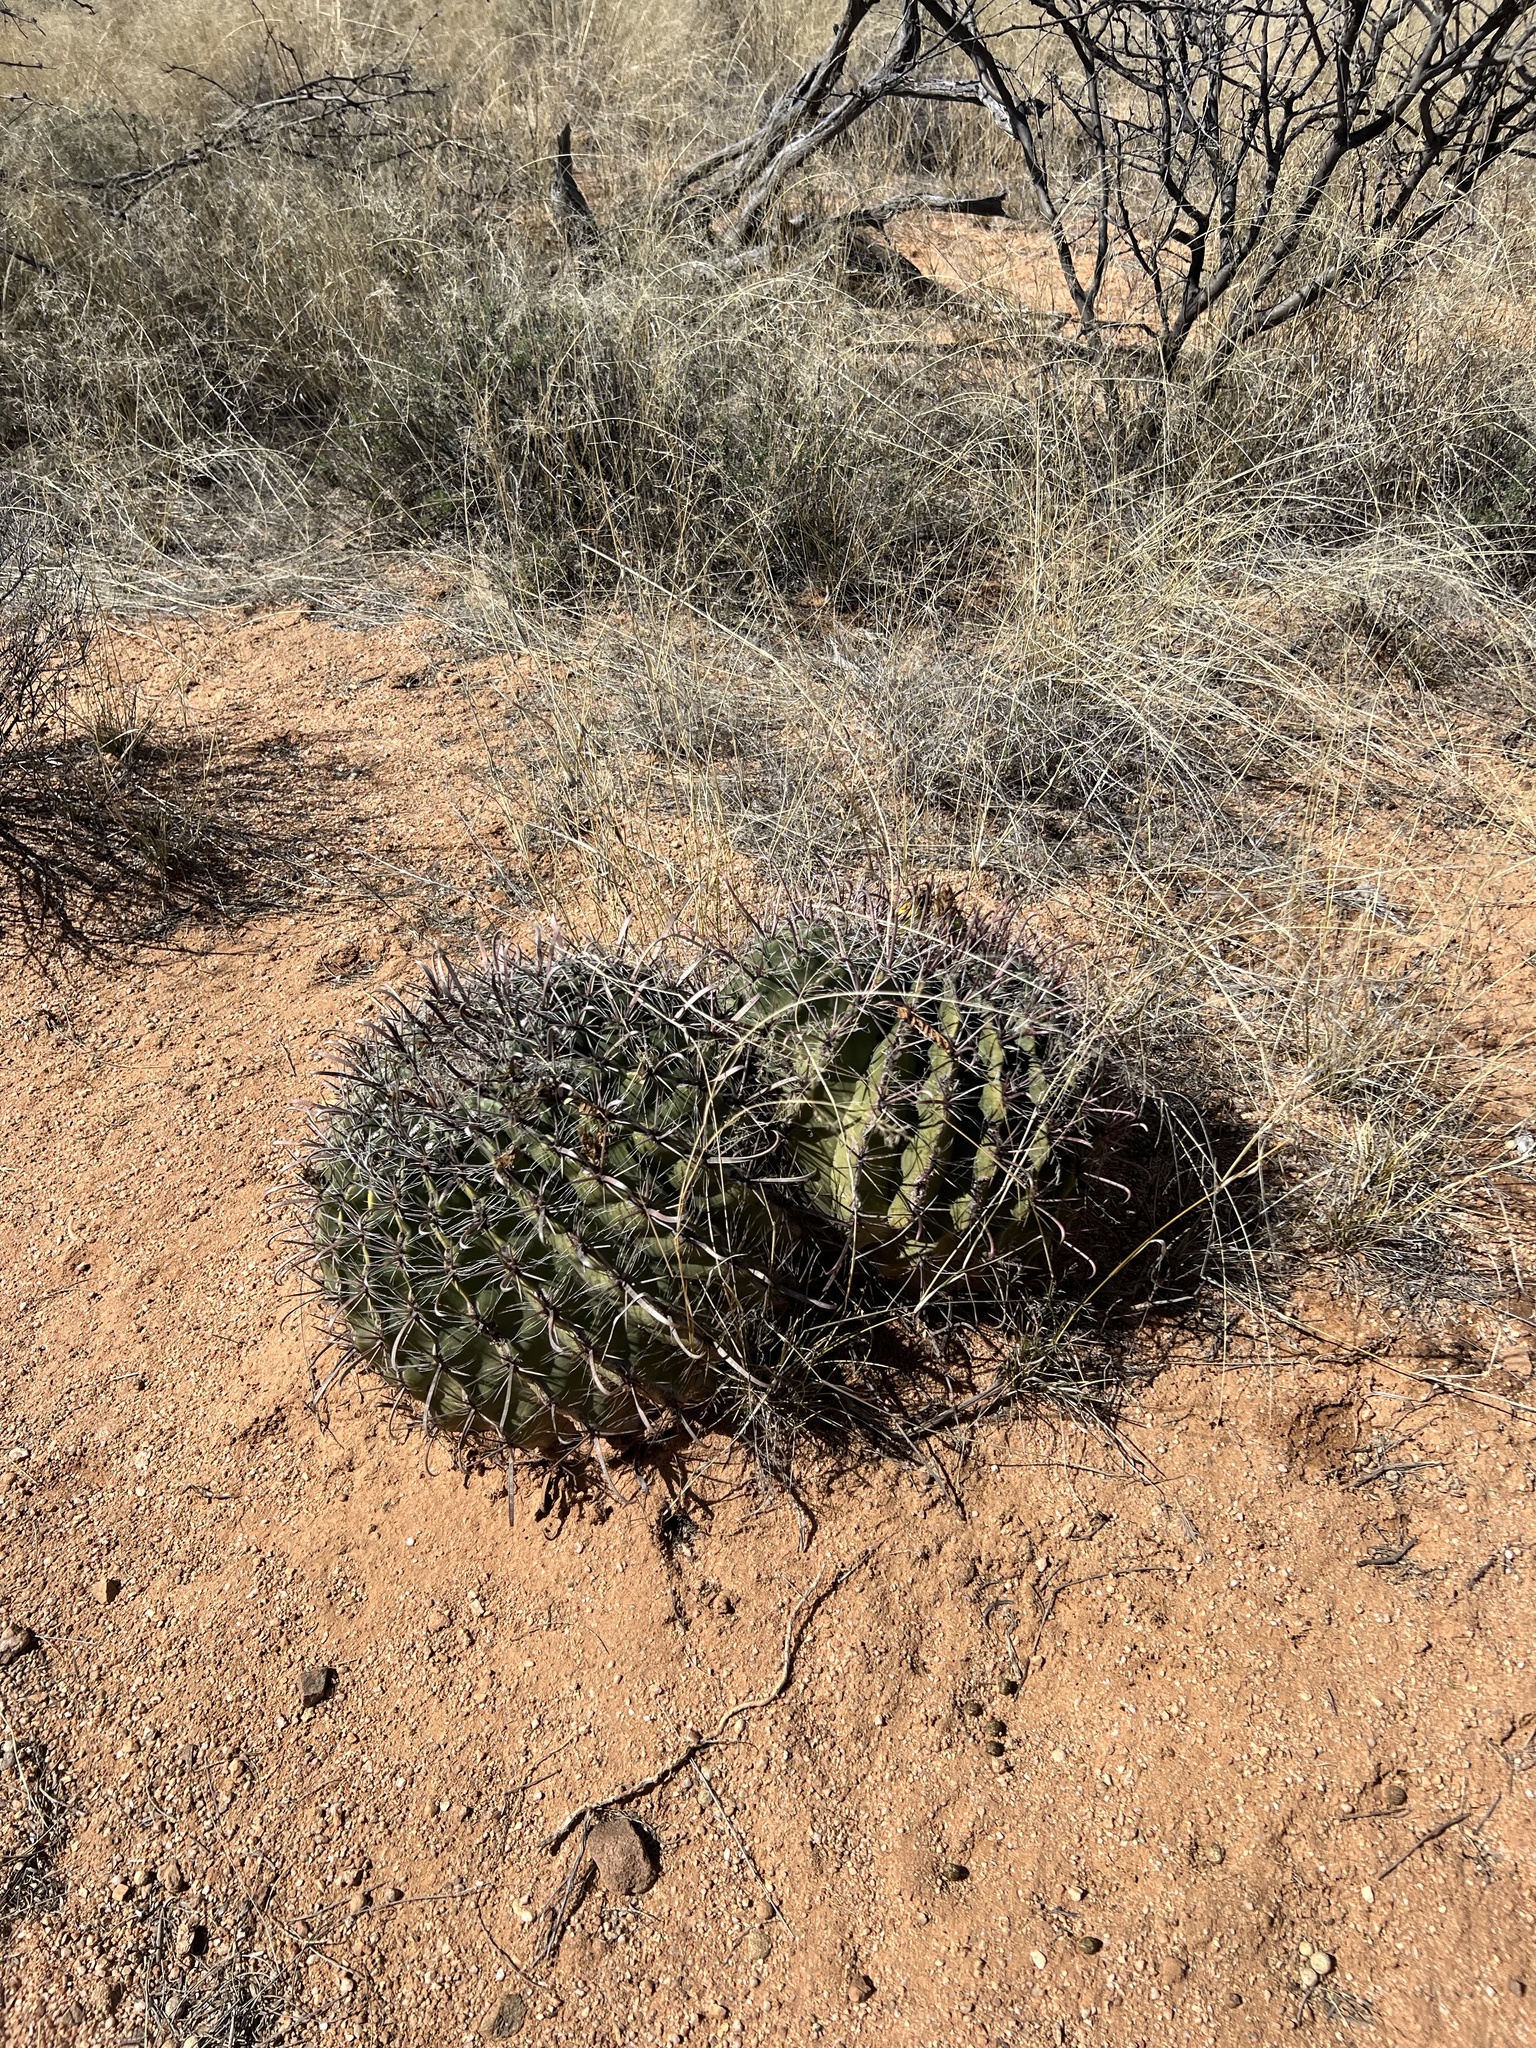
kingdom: Plantae
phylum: Tracheophyta
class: Magnoliopsida
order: Caryophyllales
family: Cactaceae
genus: Ferocactus
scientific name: Ferocactus wislizeni
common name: Candy barrel cactus
